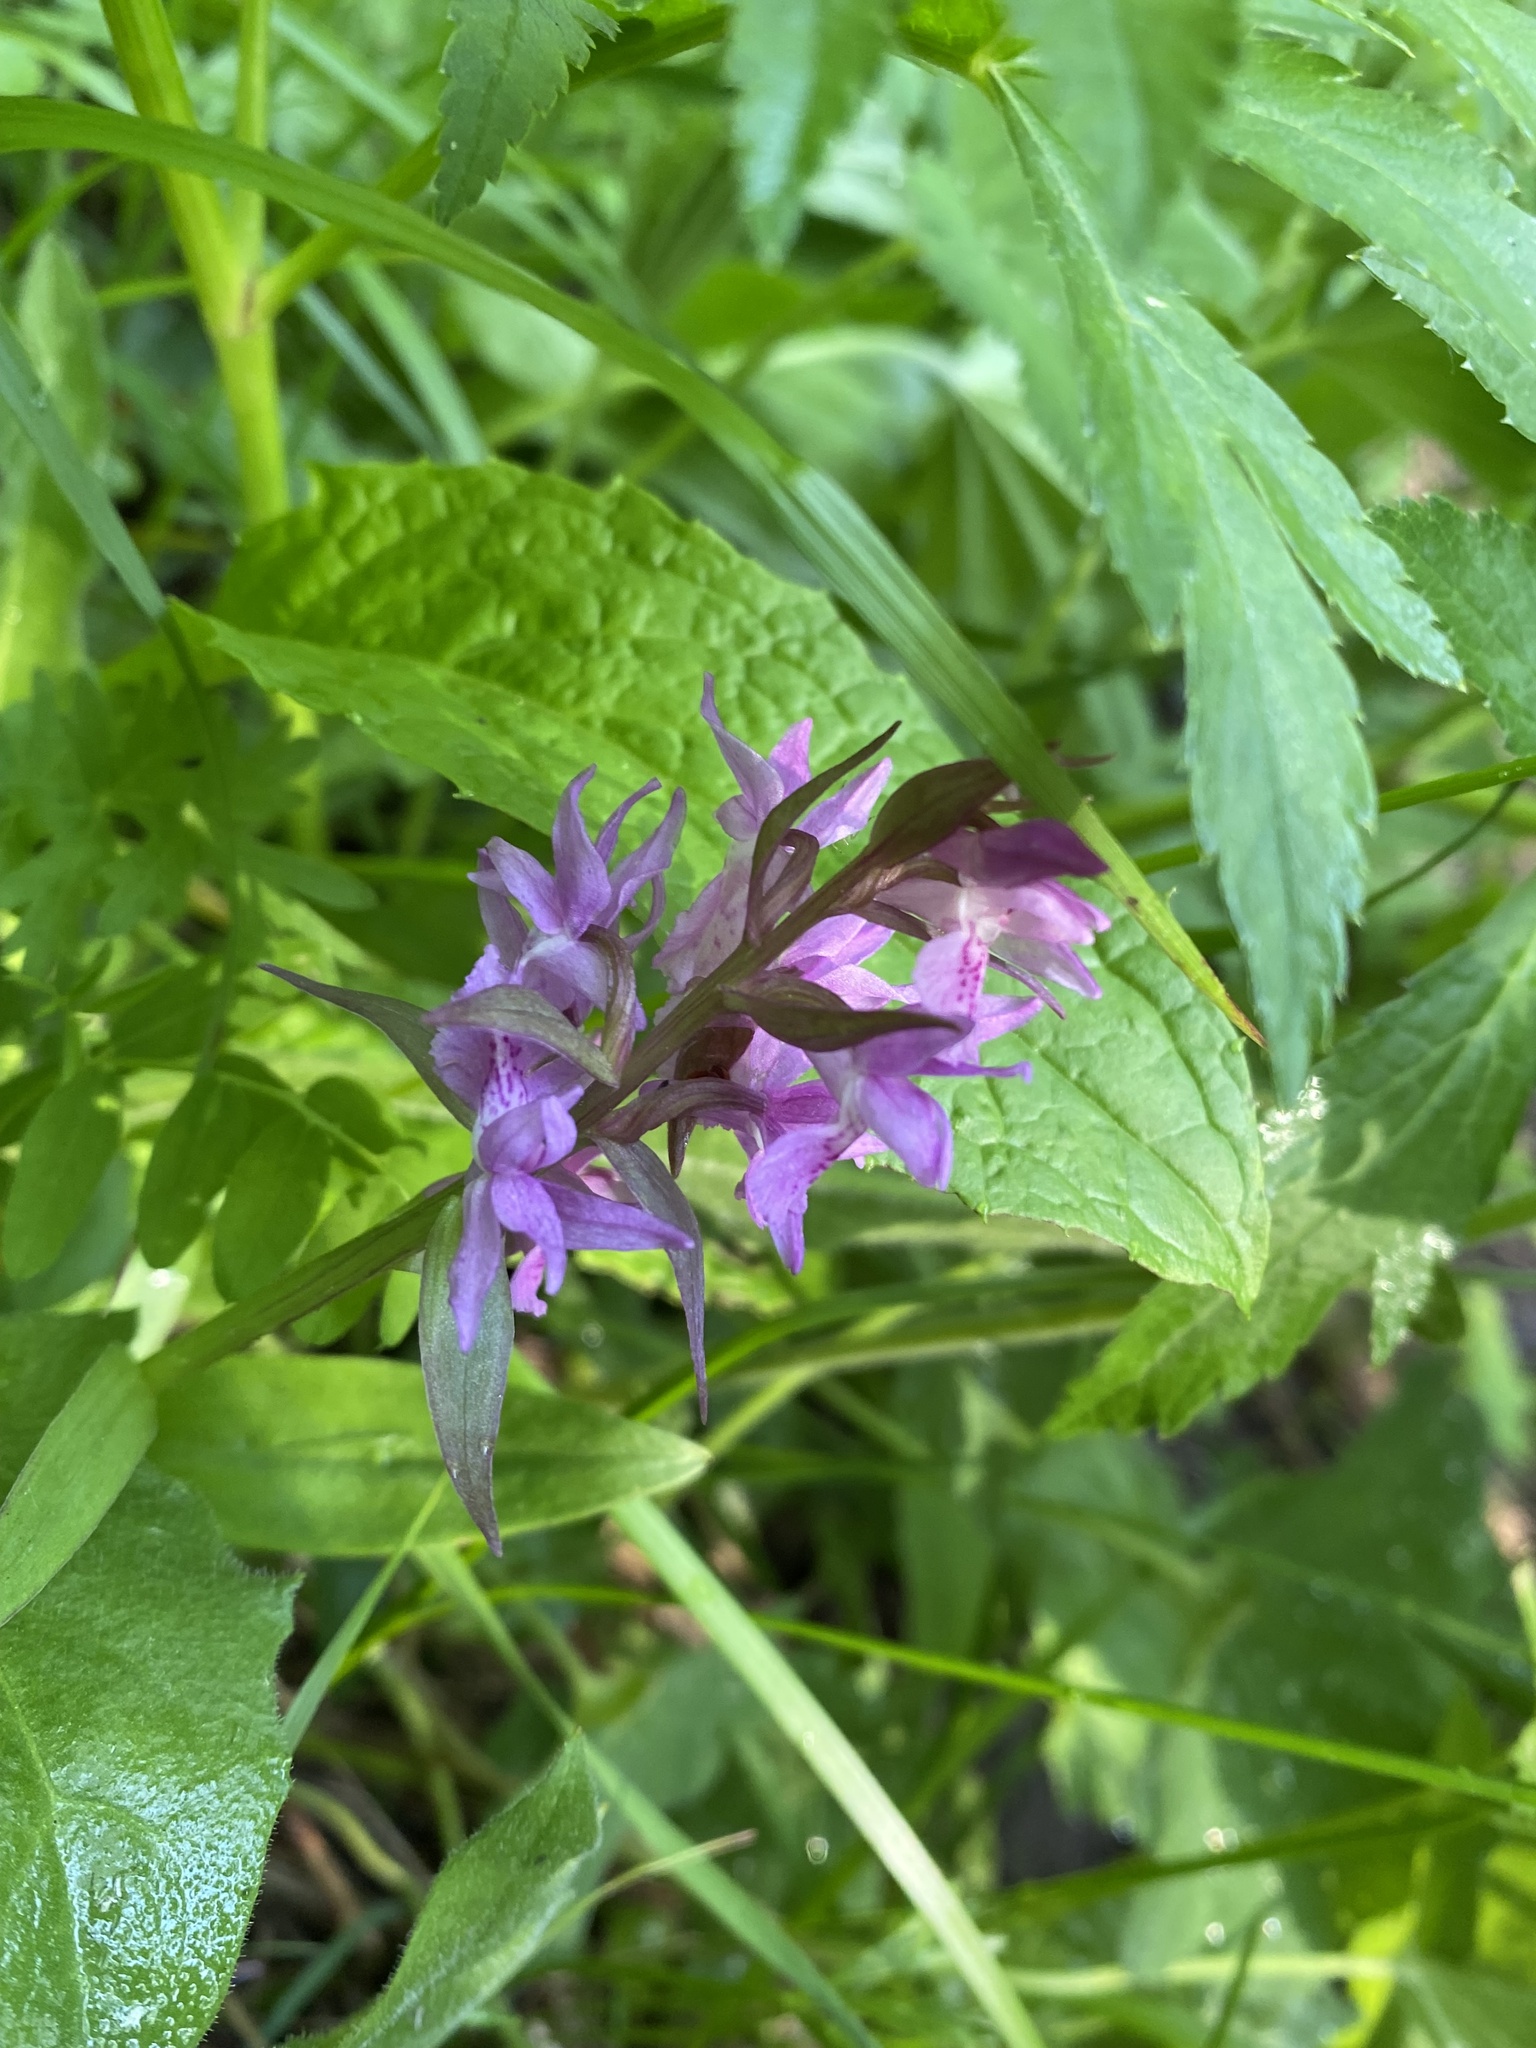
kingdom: Plantae
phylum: Tracheophyta
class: Liliopsida
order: Asparagales
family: Orchidaceae
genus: Dactylorhiza
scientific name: Dactylorhiza euxina
